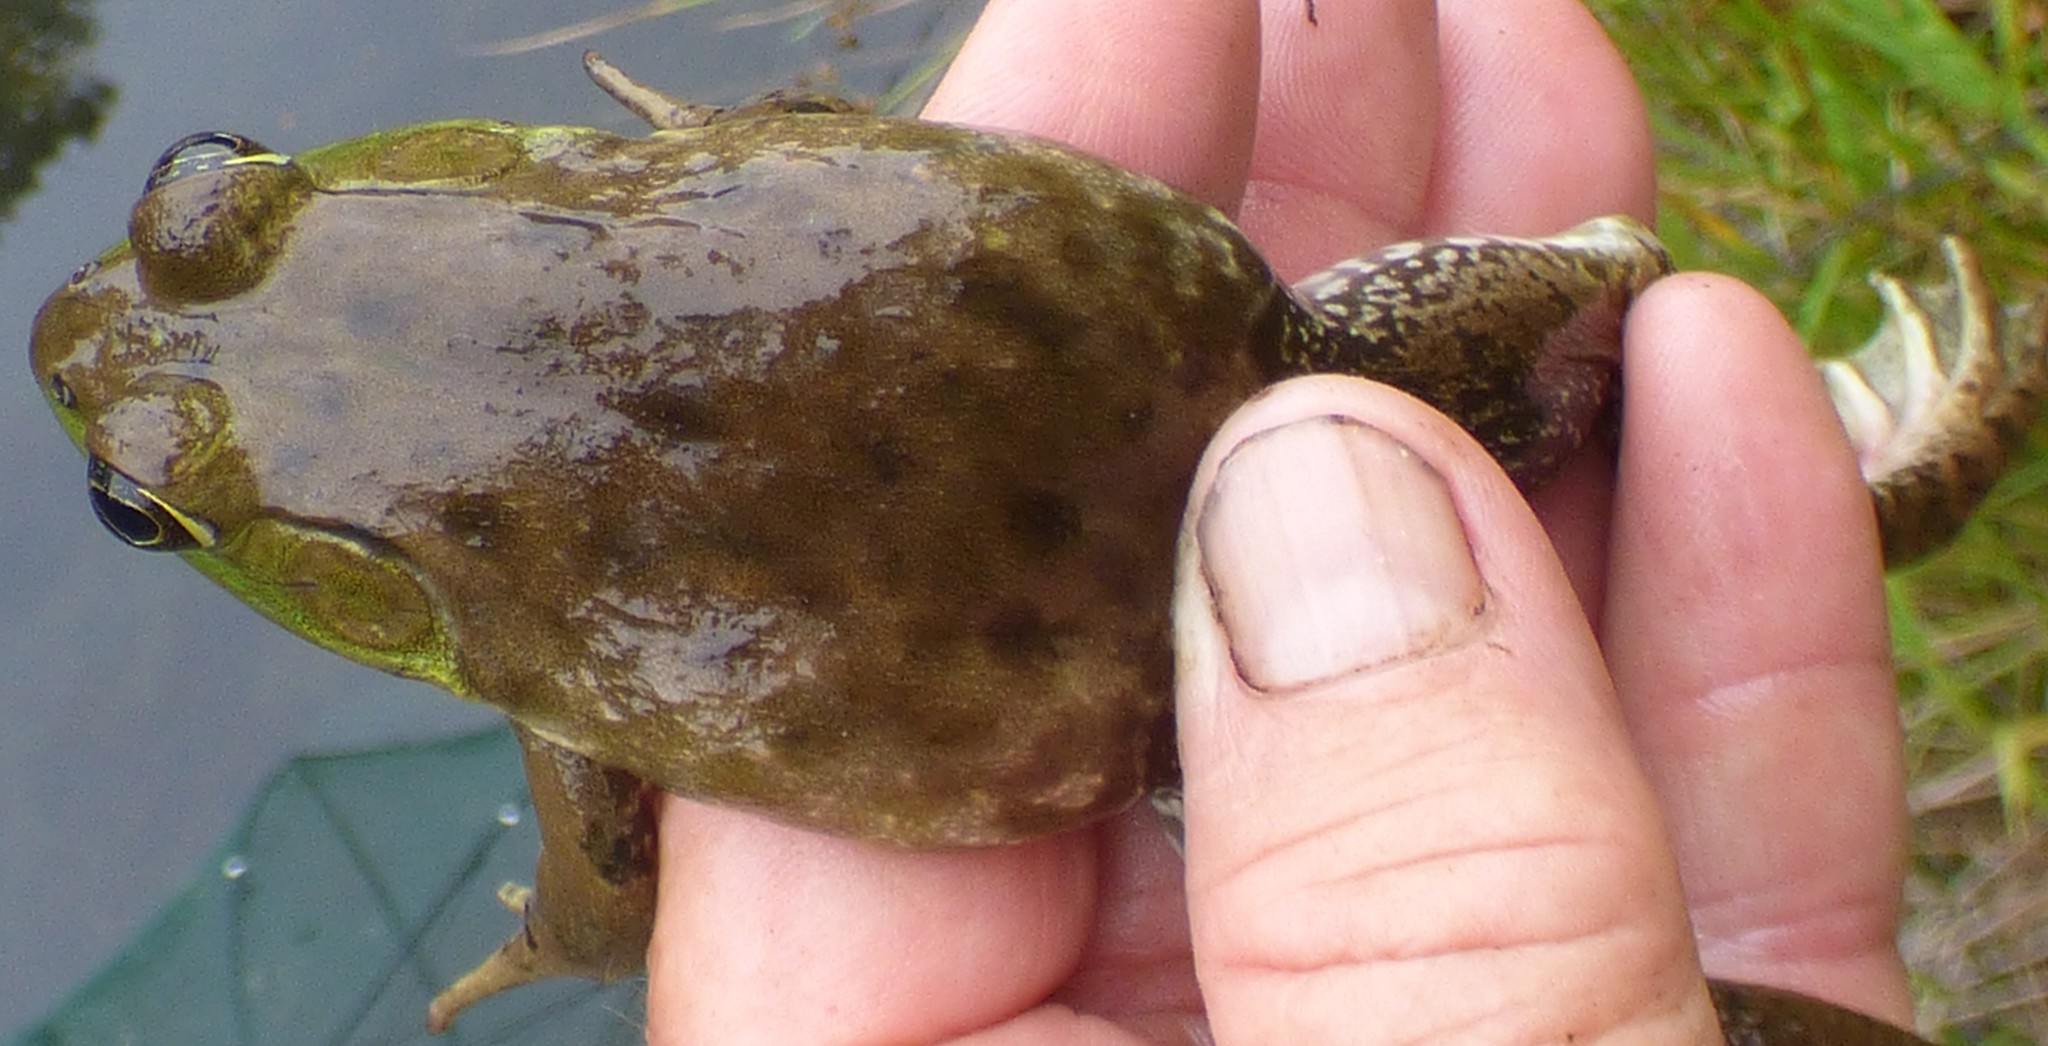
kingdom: Animalia
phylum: Chordata
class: Amphibia
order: Anura
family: Ranidae
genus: Lithobates
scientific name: Lithobates catesbeianus
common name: American bullfrog
